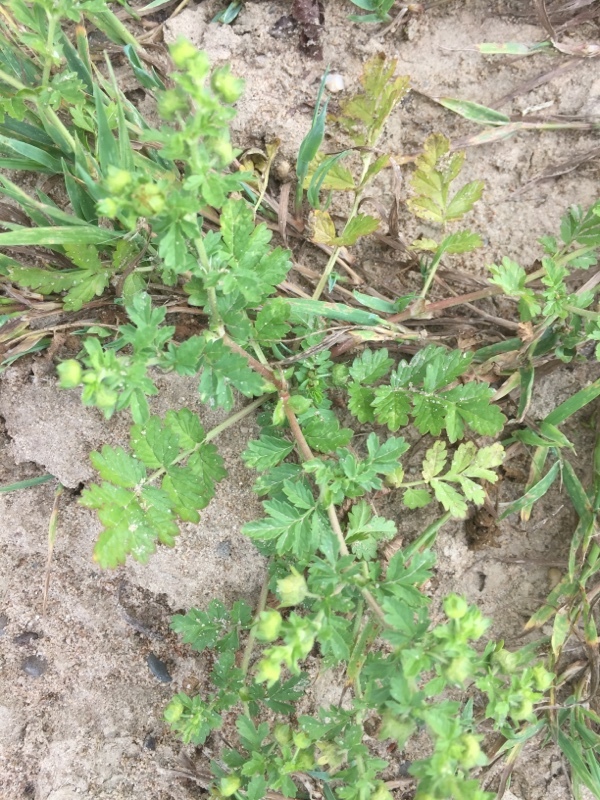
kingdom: Plantae
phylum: Tracheophyta
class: Magnoliopsida
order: Rosales
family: Rosaceae
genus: Potentilla
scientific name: Potentilla supina
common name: Prostrate cinquefoil
